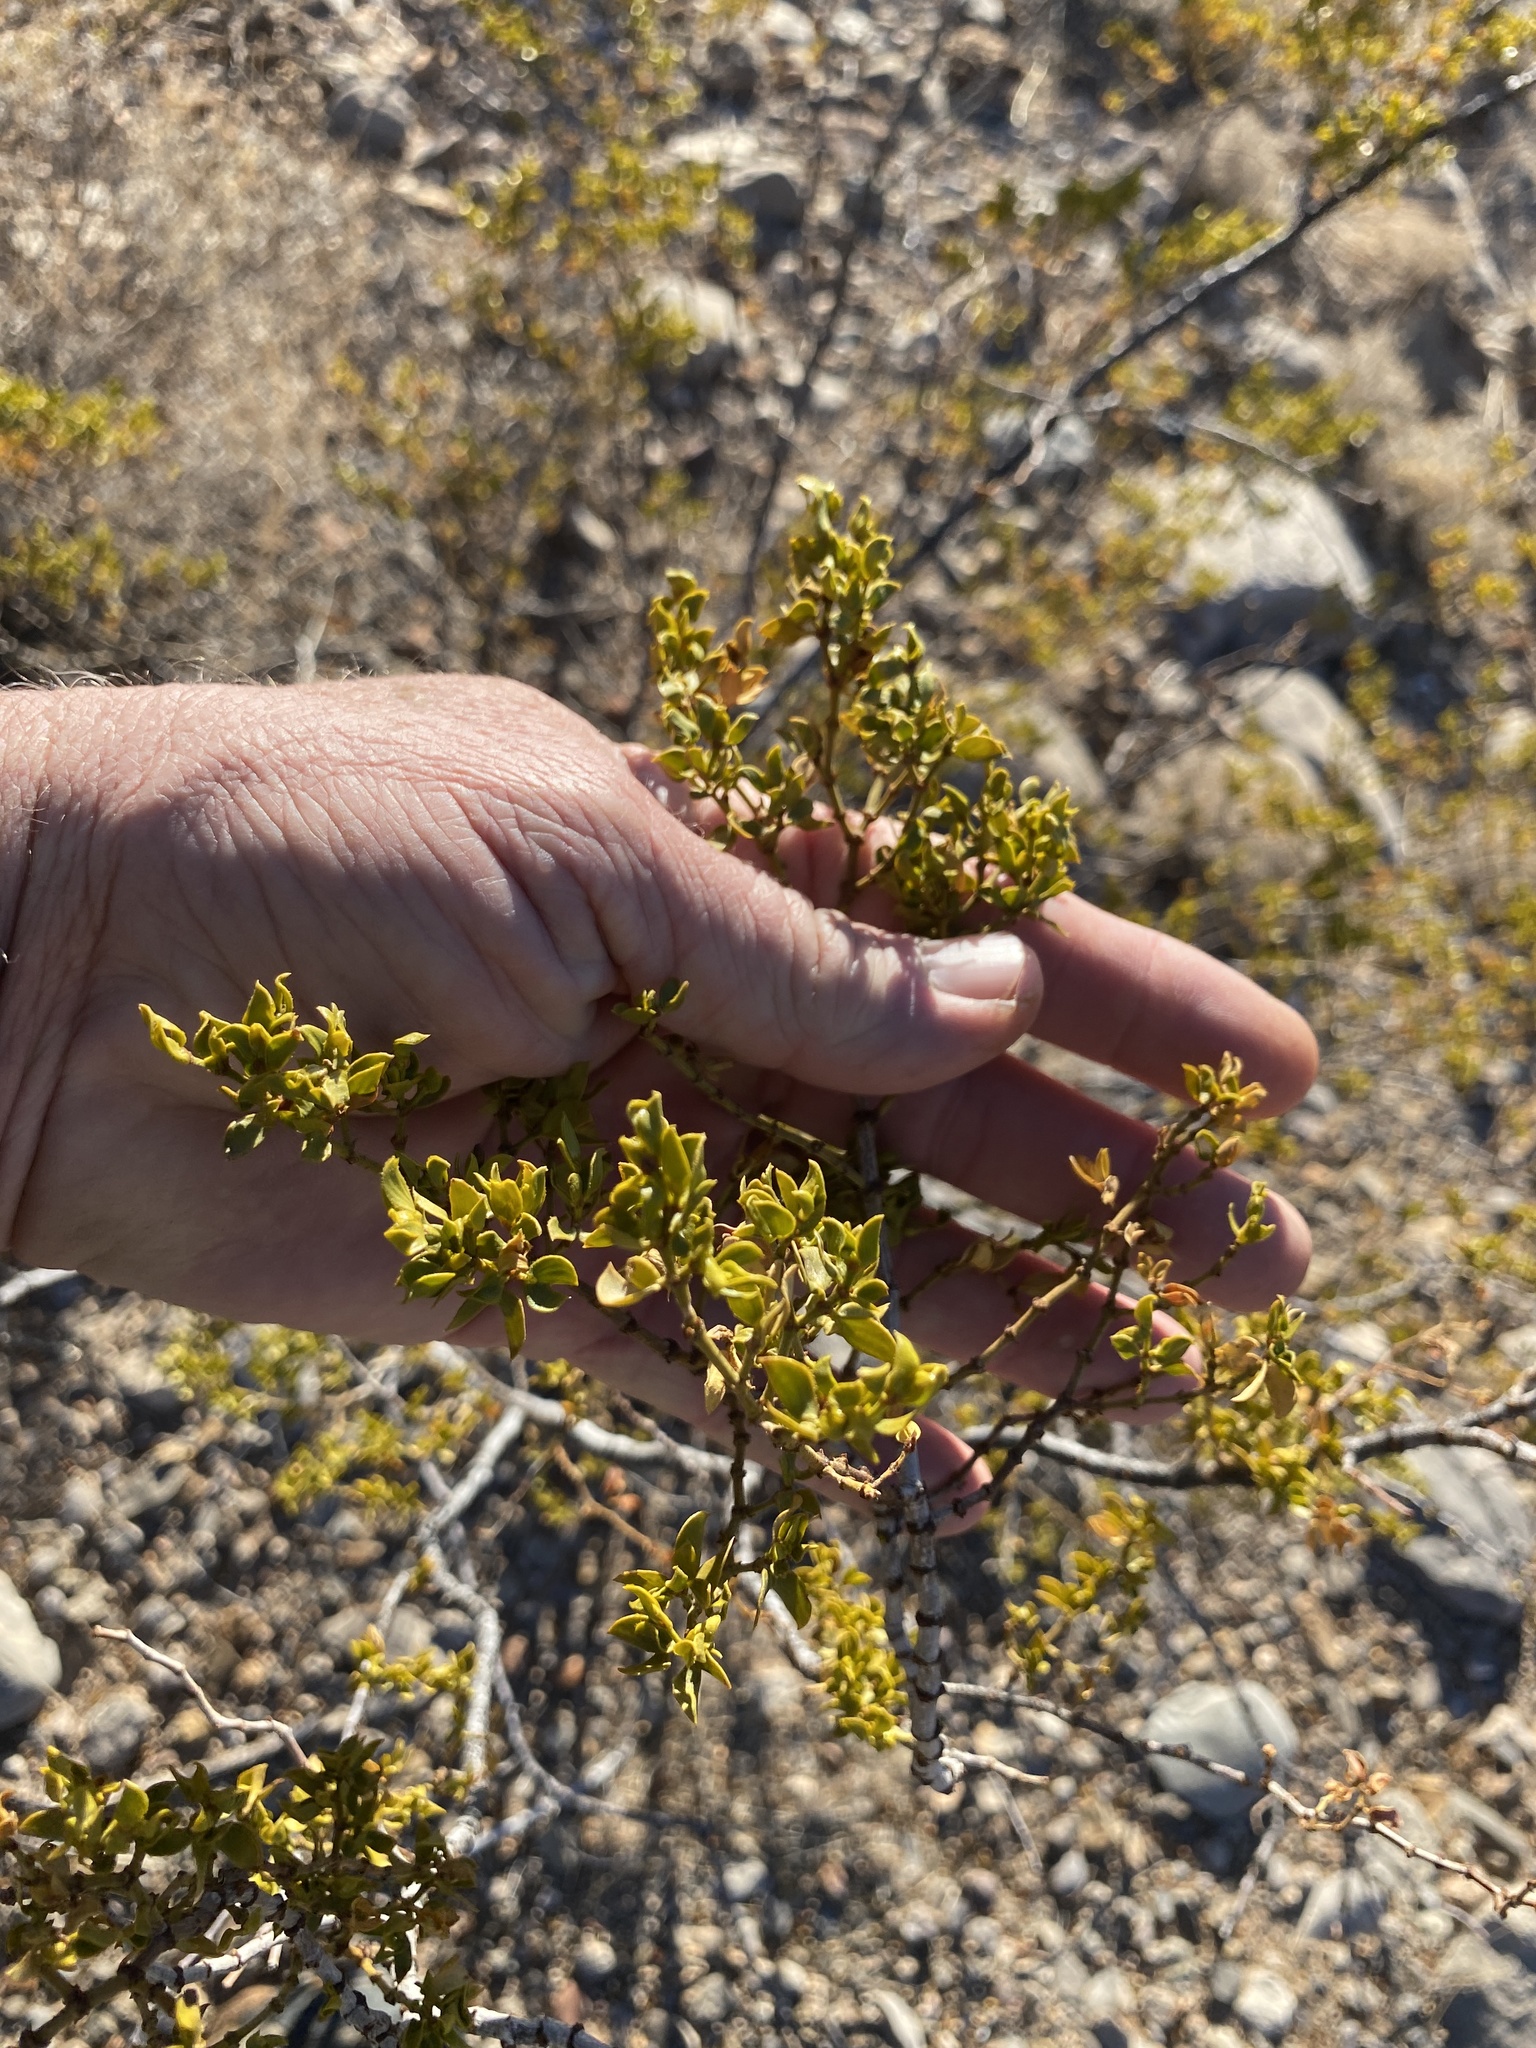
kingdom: Plantae
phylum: Tracheophyta
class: Magnoliopsida
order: Zygophyllales
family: Zygophyllaceae
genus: Larrea
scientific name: Larrea tridentata
